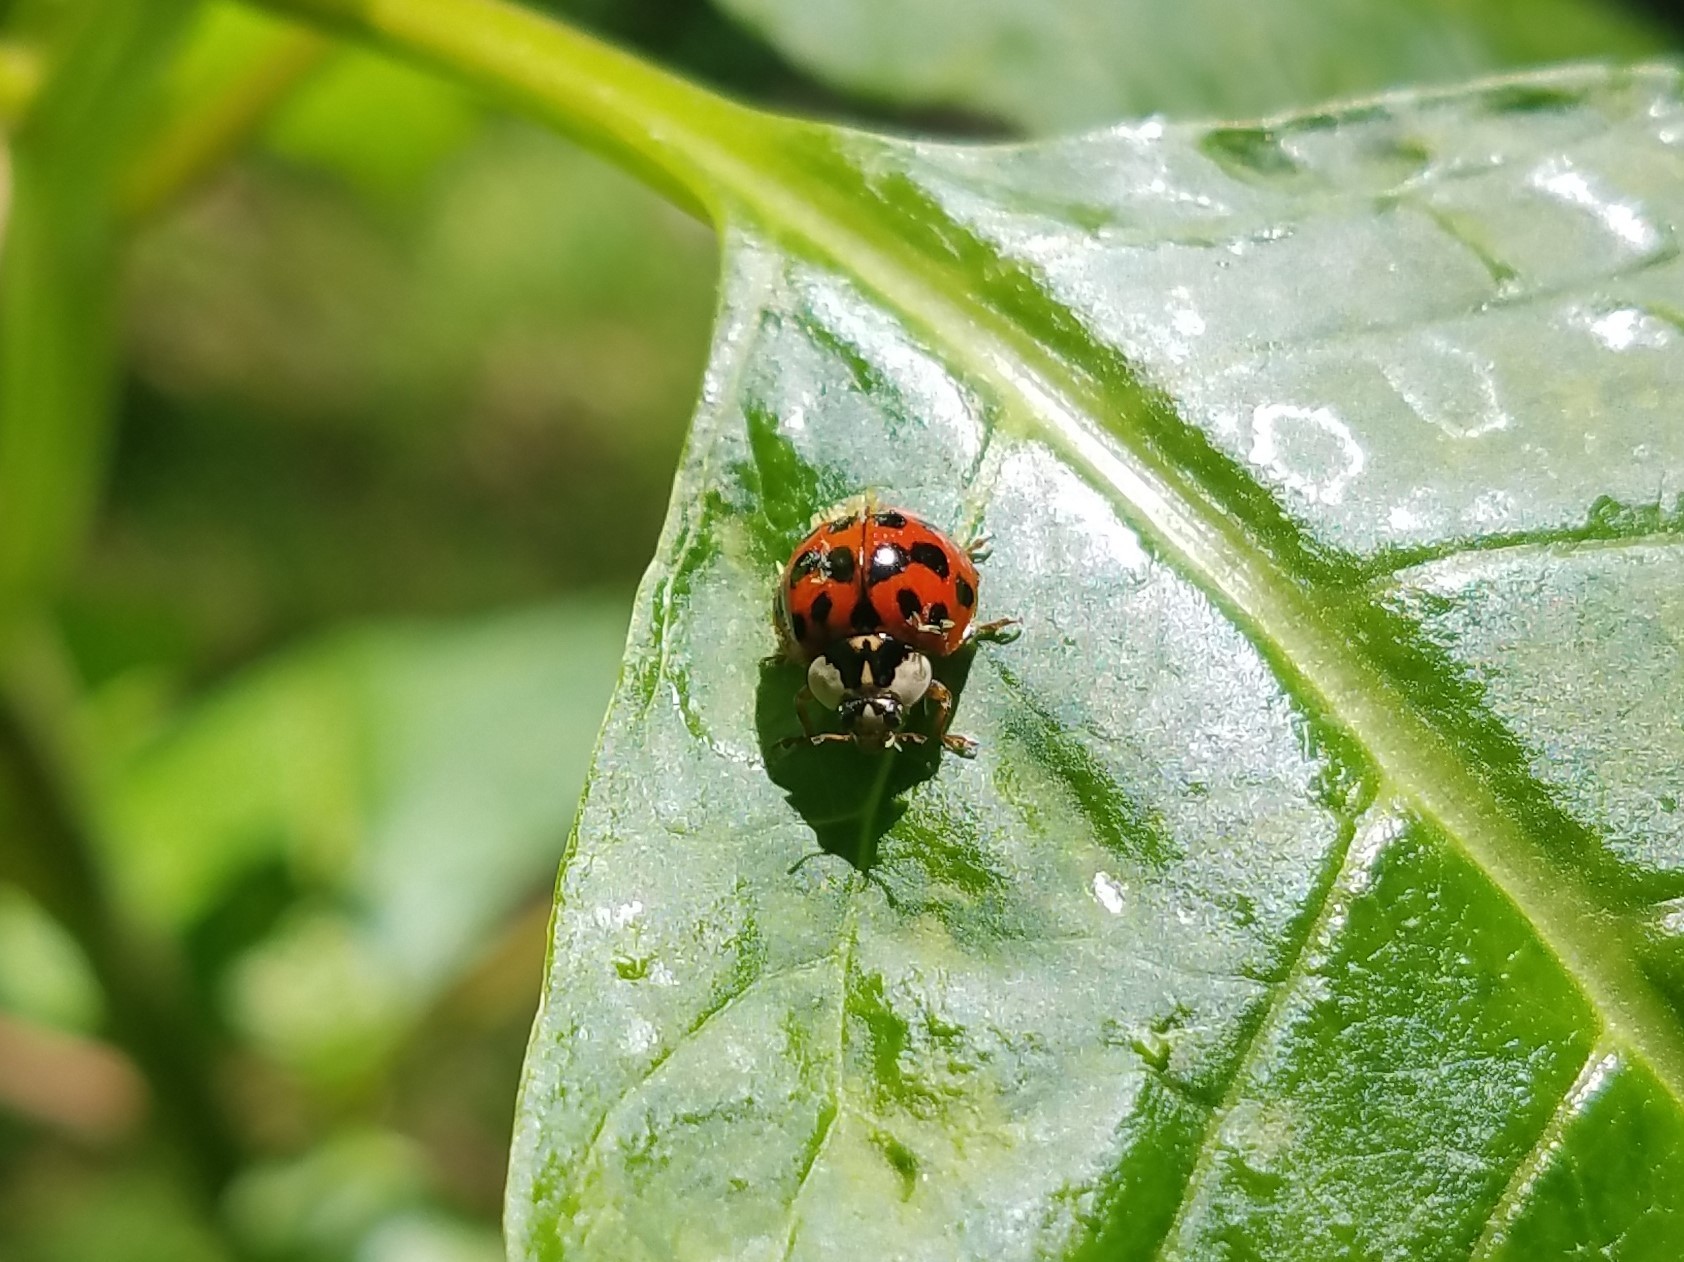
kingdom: Animalia
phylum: Arthropoda
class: Insecta
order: Coleoptera
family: Coccinellidae
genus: Harmonia
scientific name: Harmonia axyridis
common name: Harlequin ladybird
